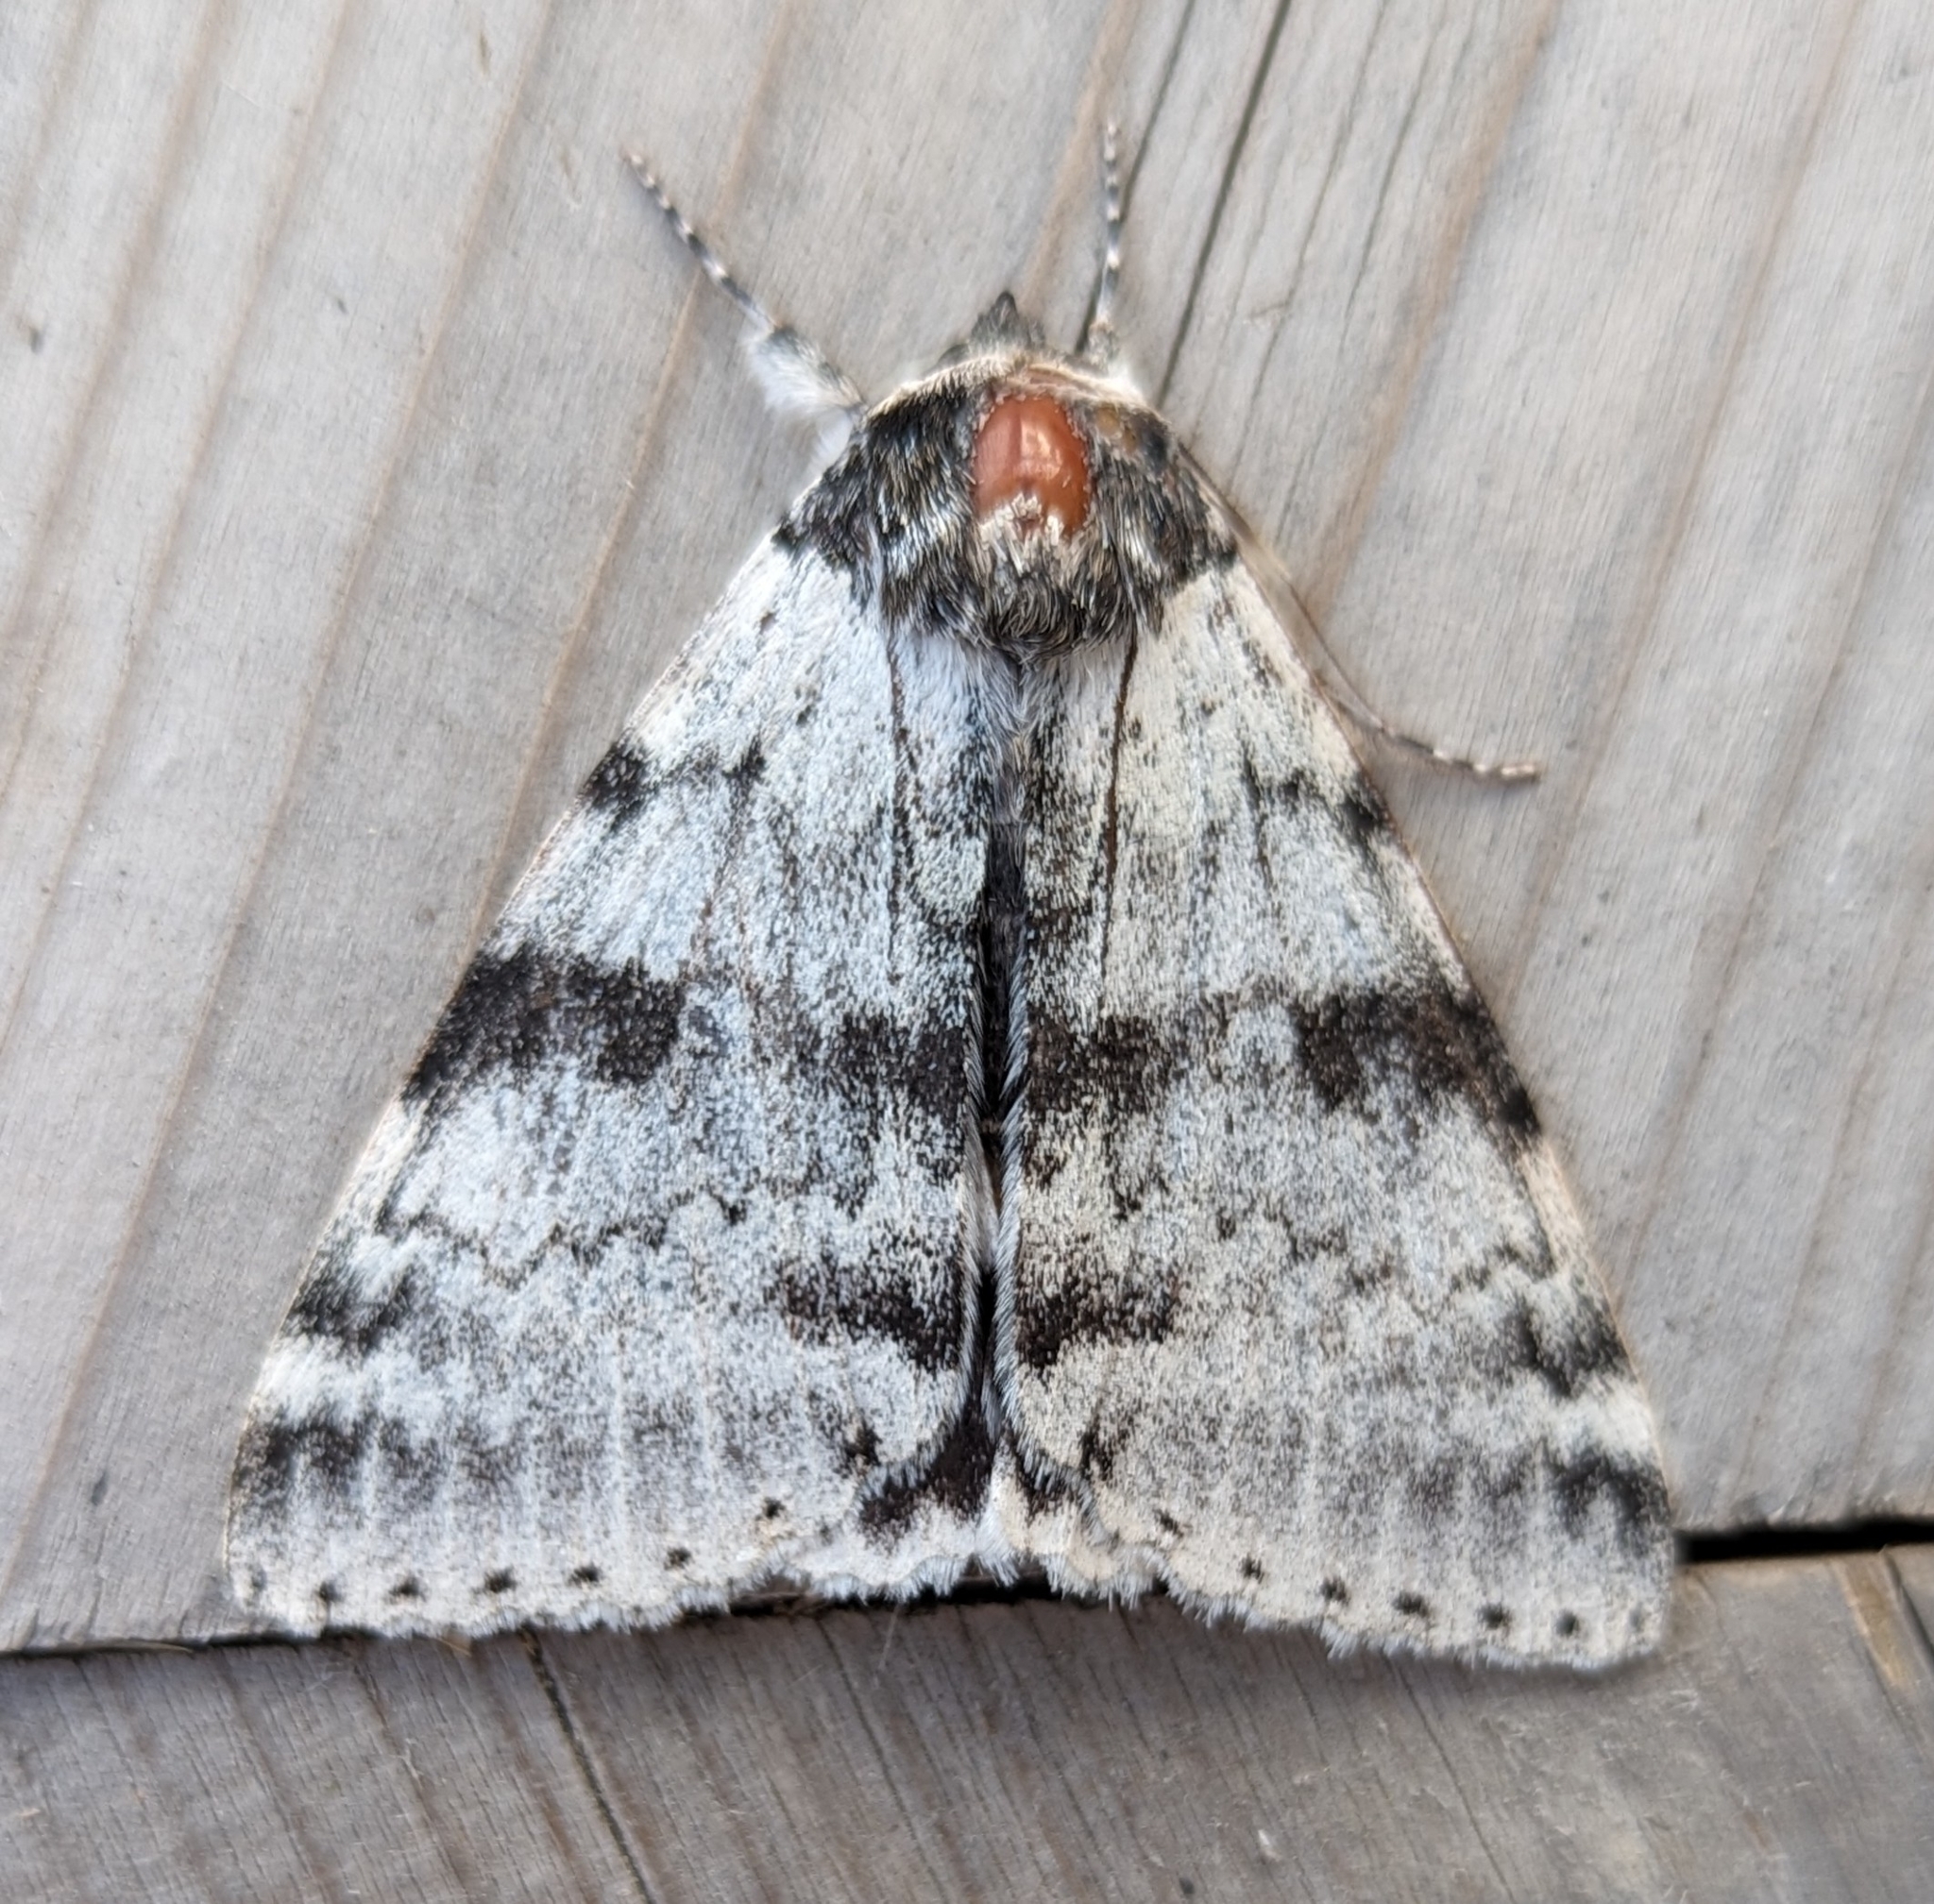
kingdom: Animalia
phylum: Arthropoda
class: Insecta
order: Lepidoptera
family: Erebidae
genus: Catocala
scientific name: Catocala relicta
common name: White underwing
